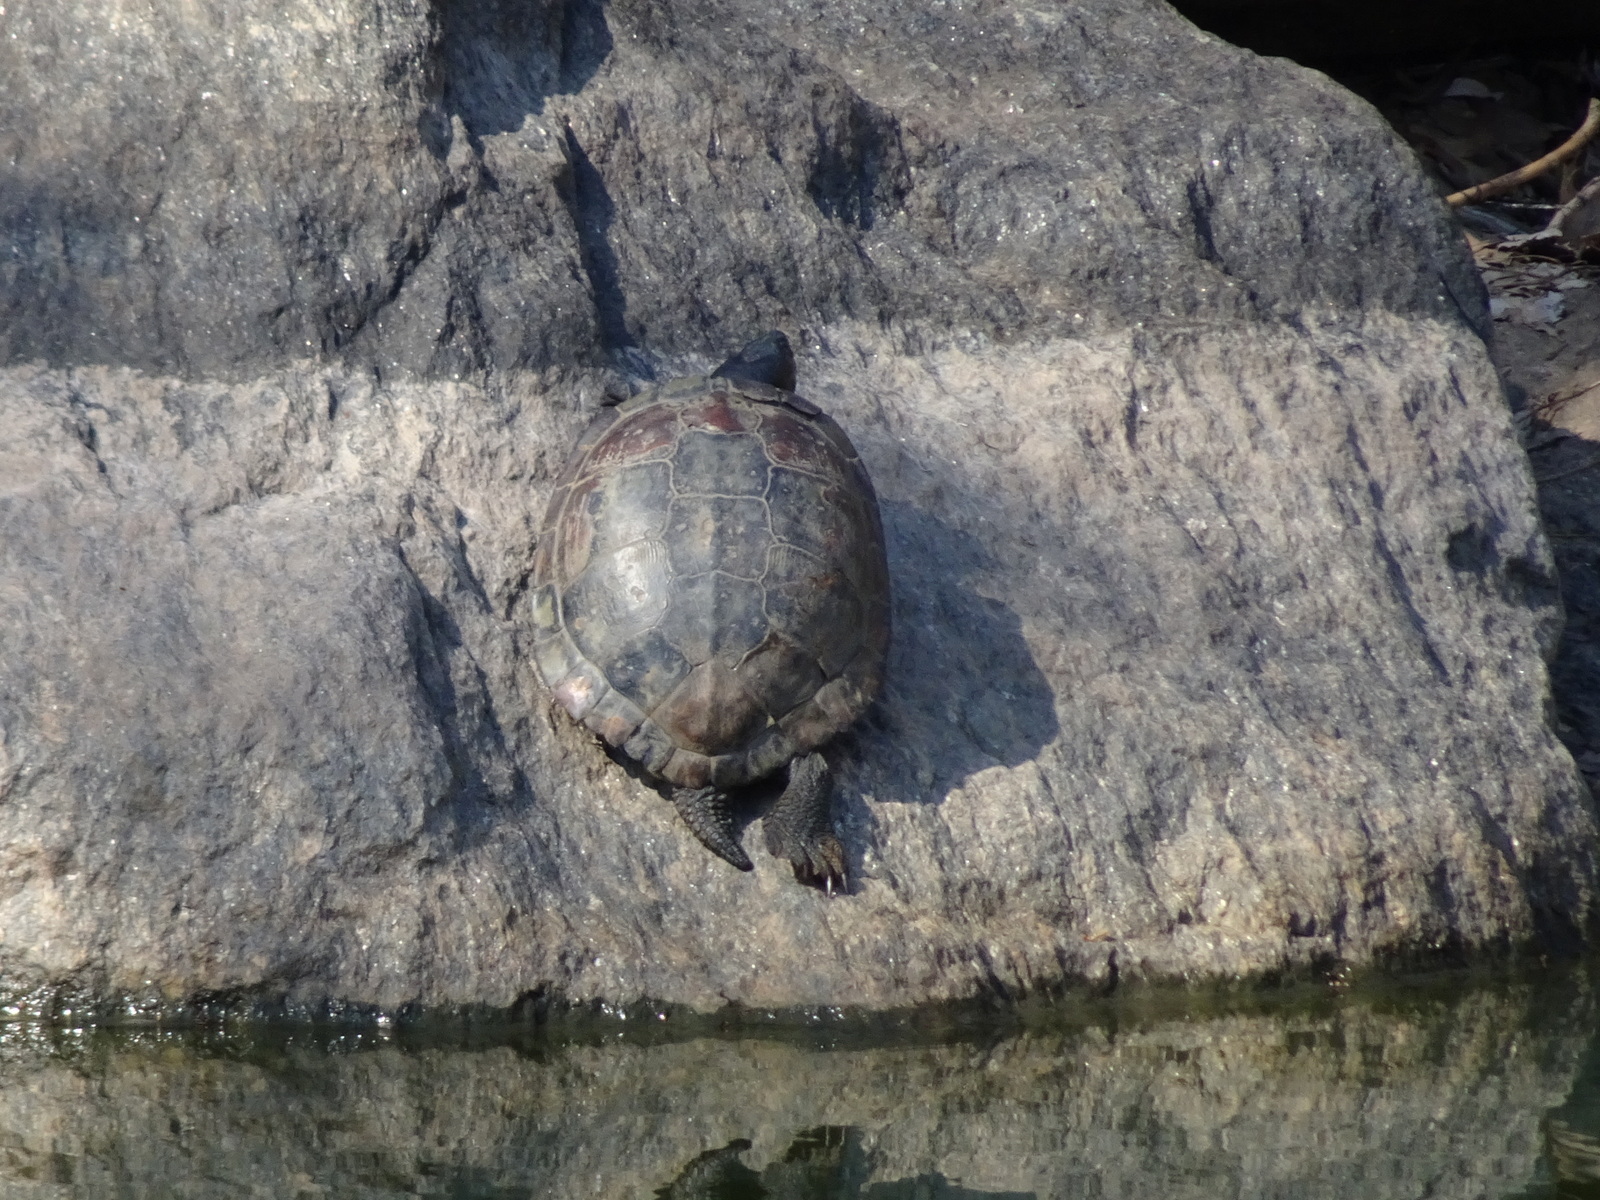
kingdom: Animalia
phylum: Chordata
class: Testudines
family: Emydidae
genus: Trachemys
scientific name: Trachemys scripta
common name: Slider
